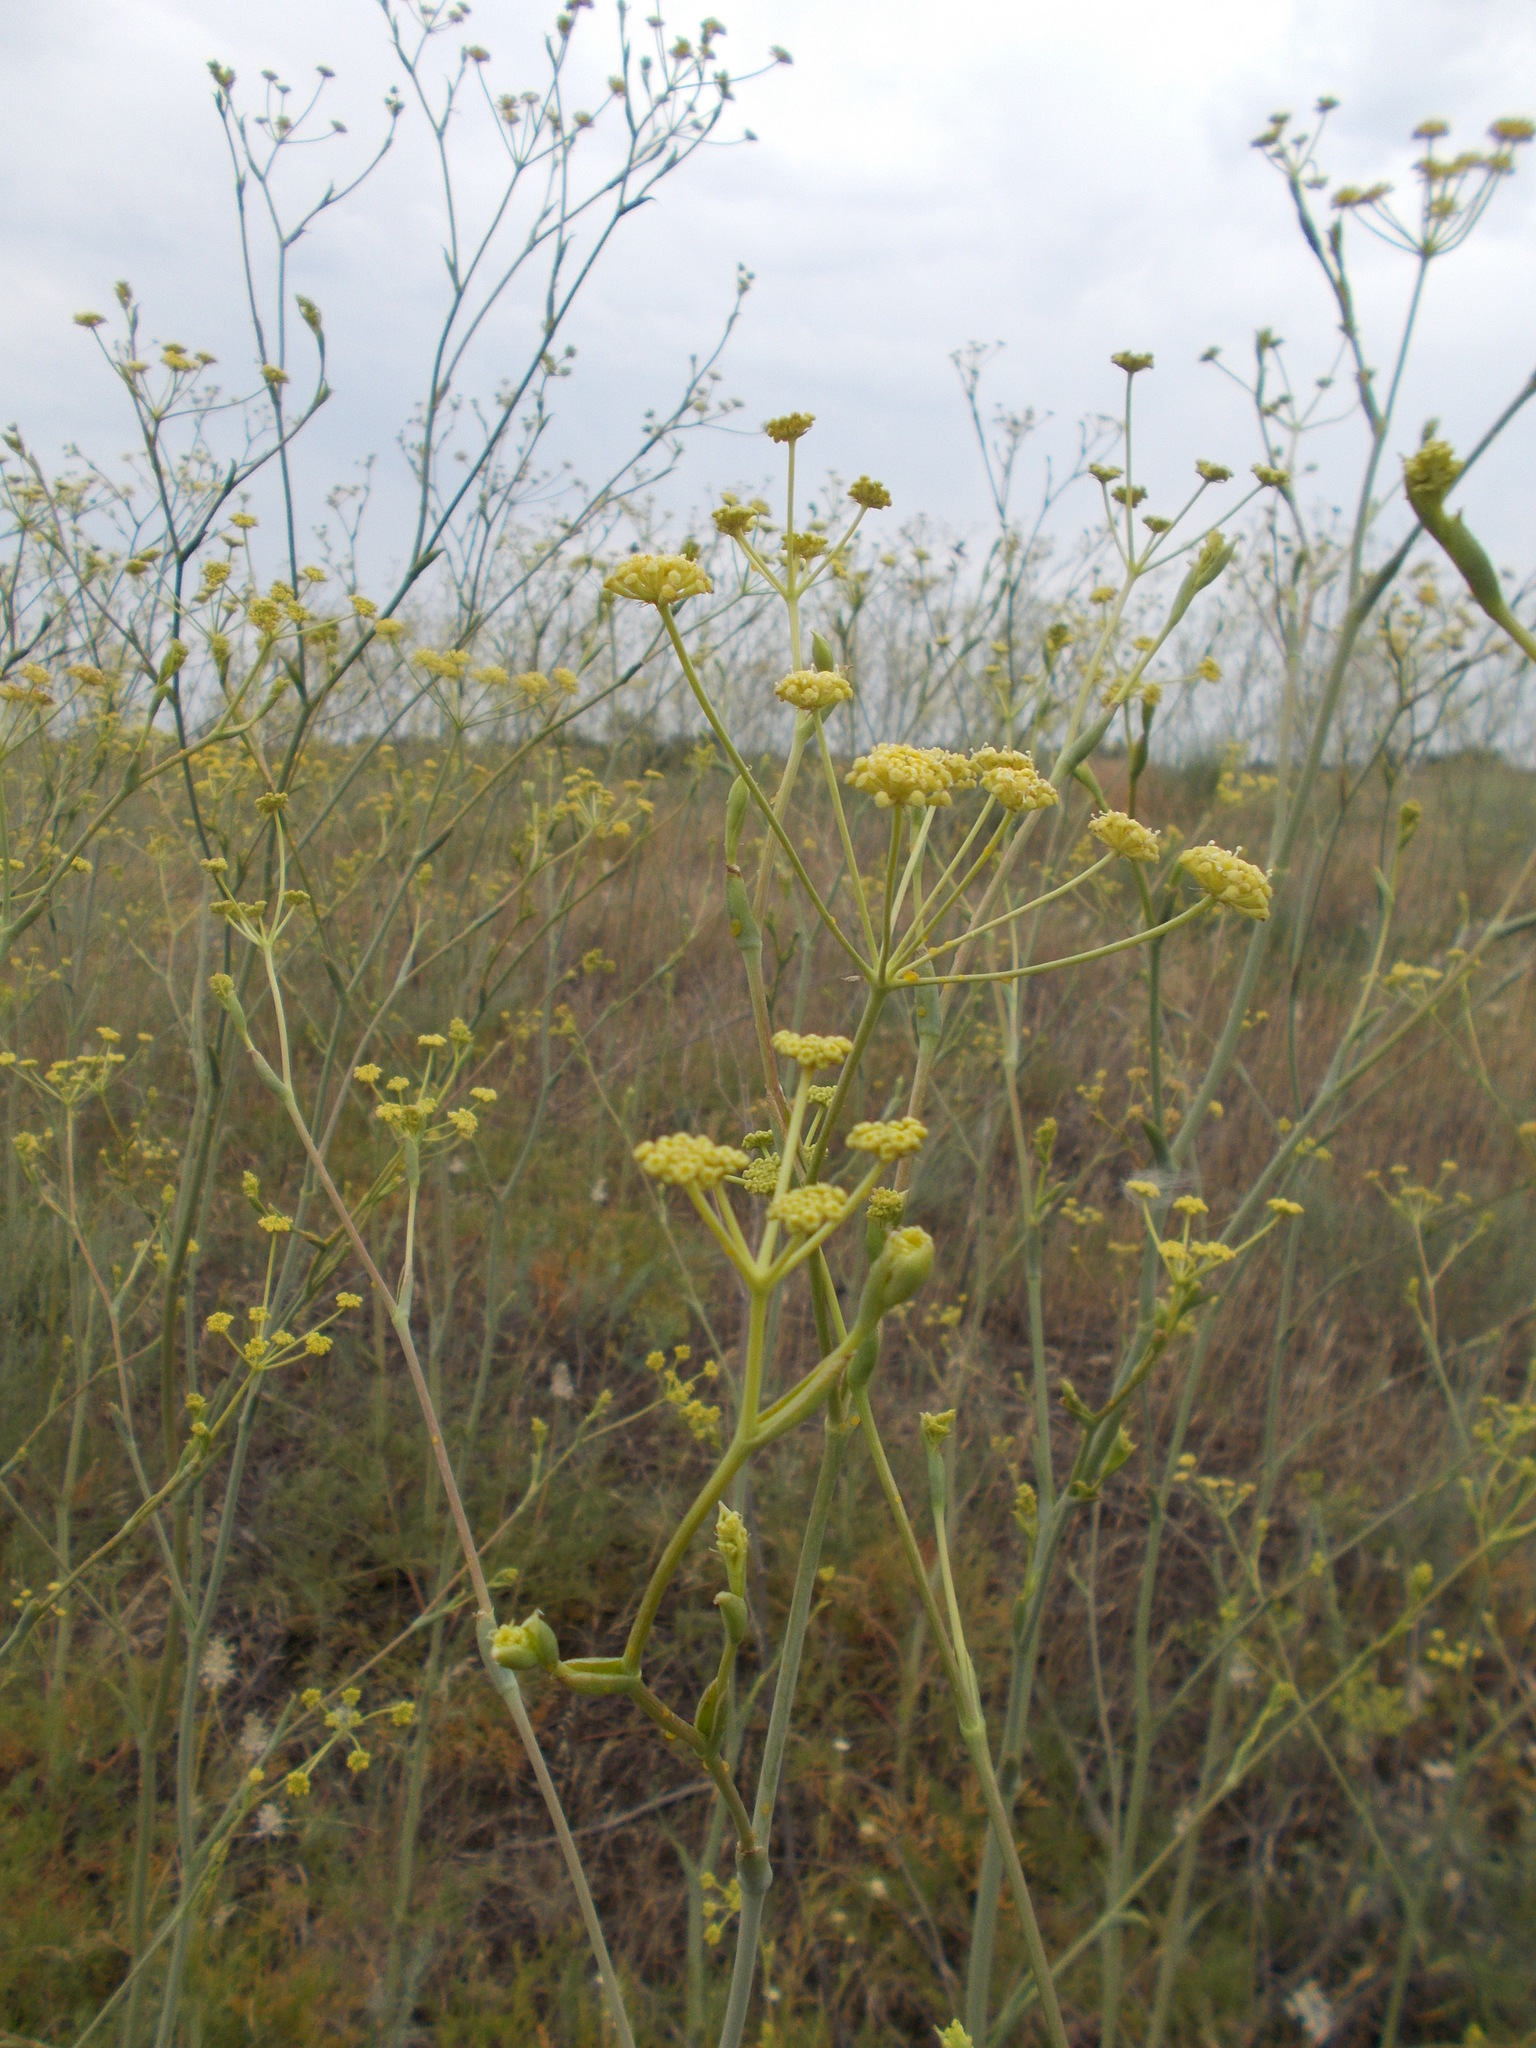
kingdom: Plantae
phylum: Tracheophyta
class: Magnoliopsida
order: Apiales
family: Apiaceae
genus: Taeniopetalum
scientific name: Taeniopetalum arenarium
